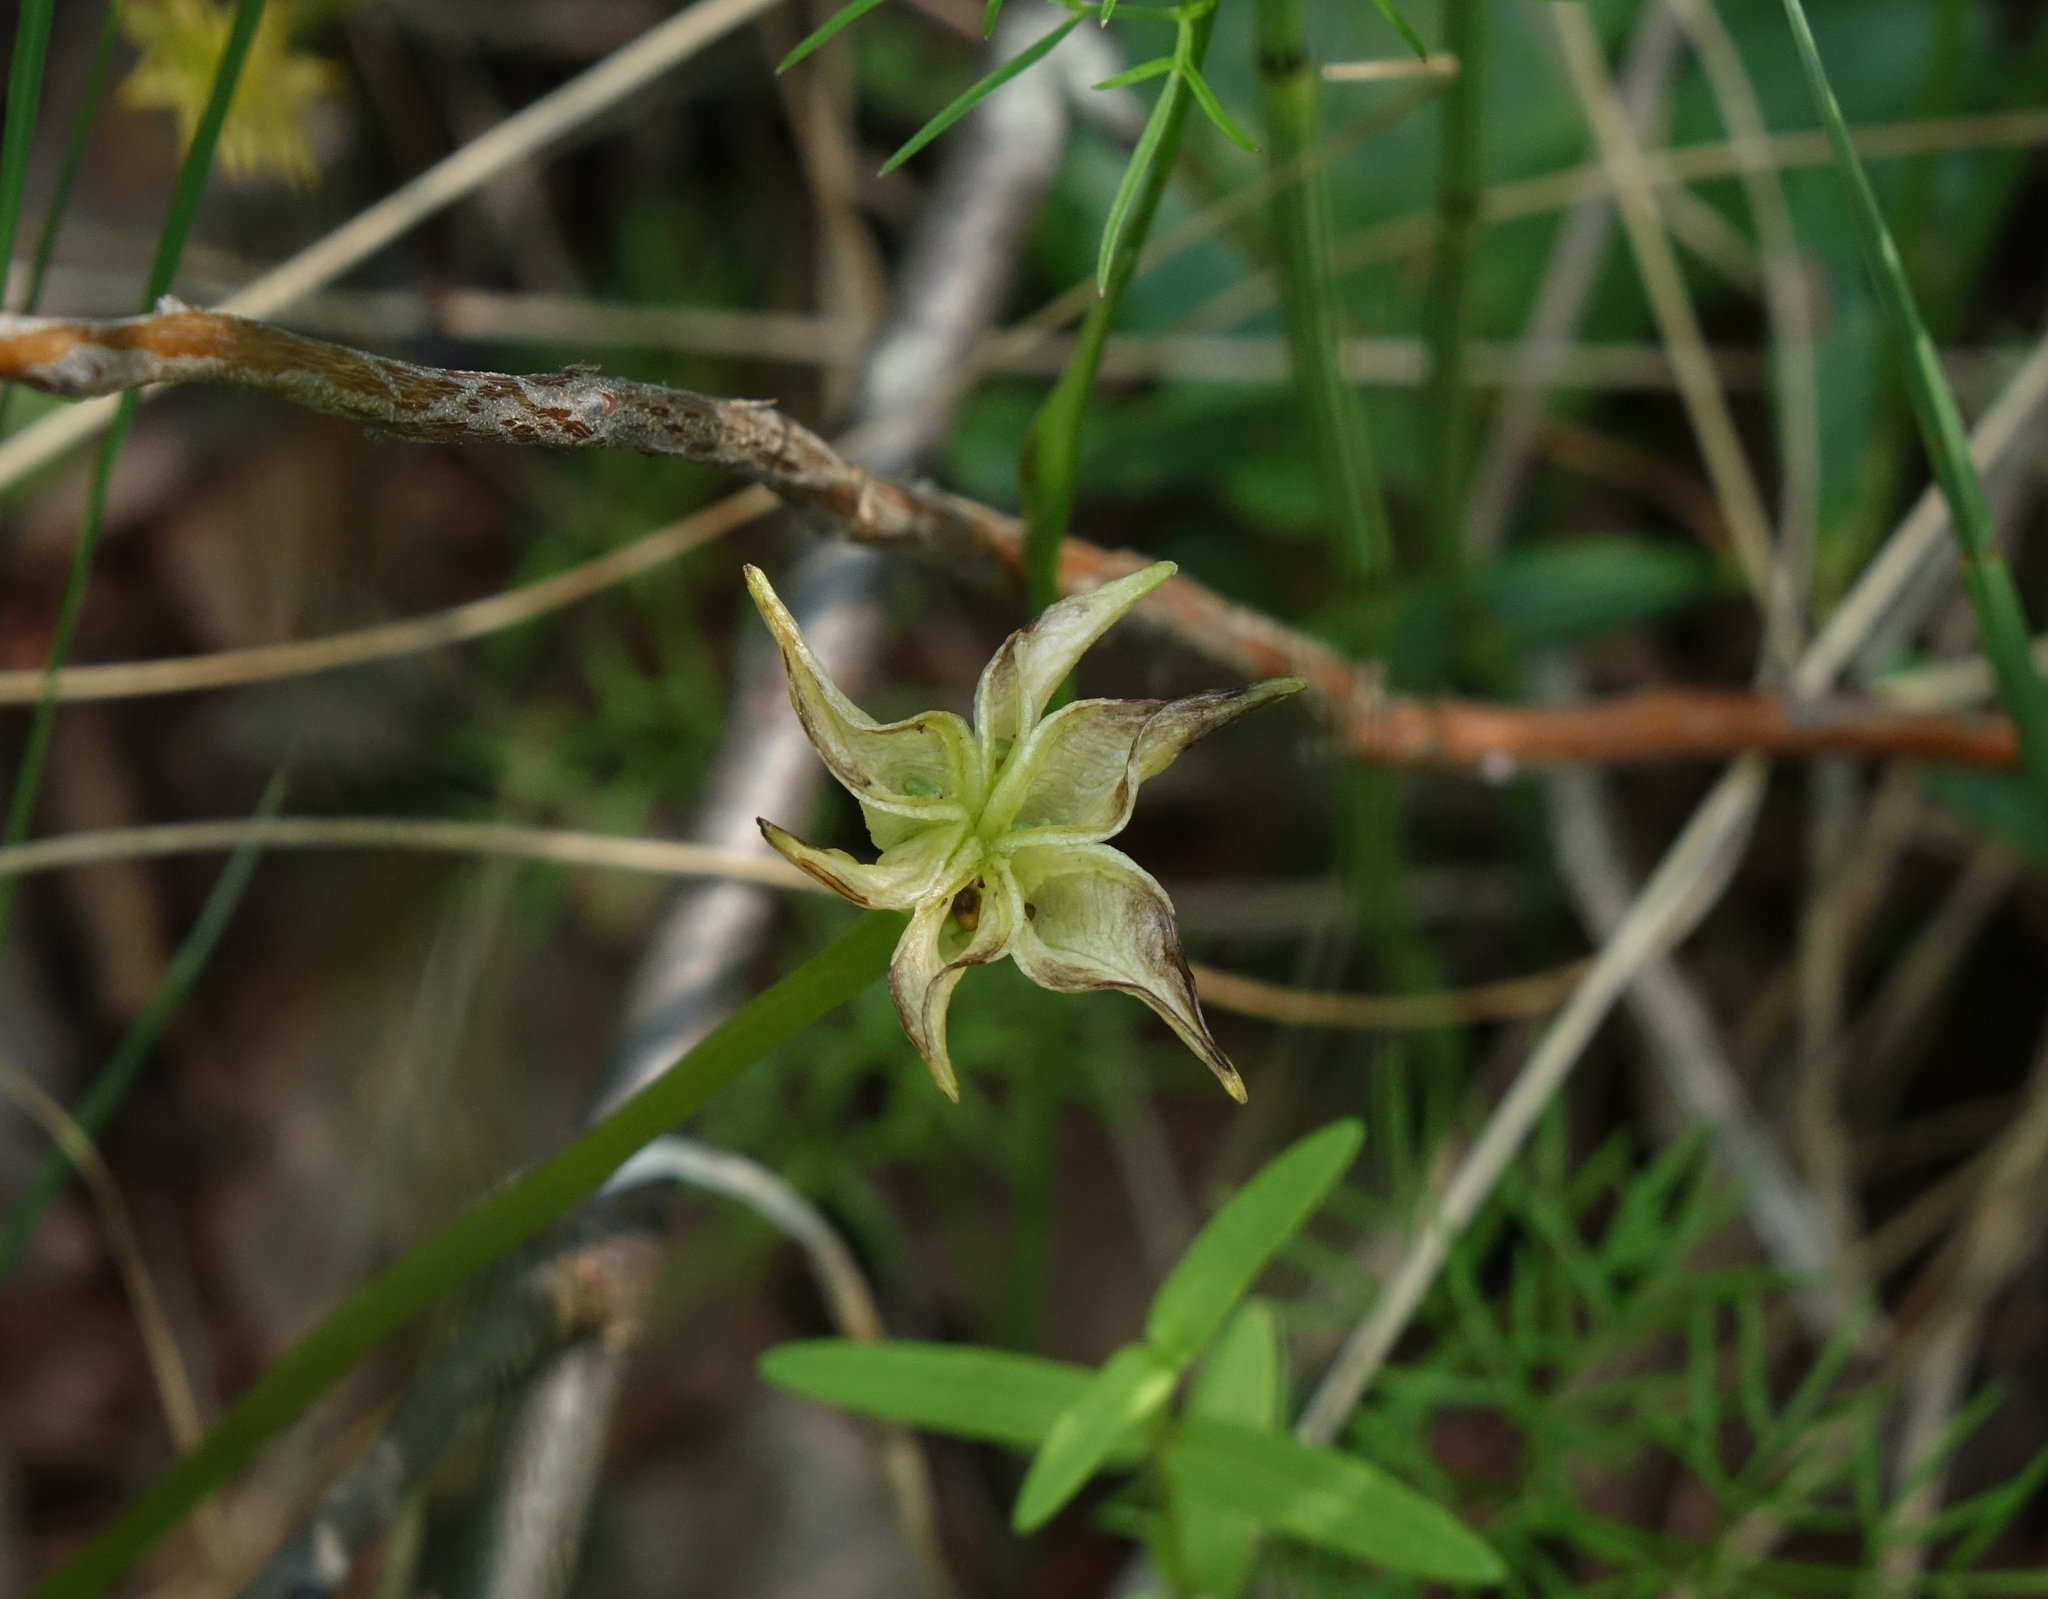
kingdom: Plantae
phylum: Tracheophyta
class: Magnoliopsida
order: Ranunculales
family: Ranunculaceae
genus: Caltha
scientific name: Caltha palustris
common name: Marsh marigold
